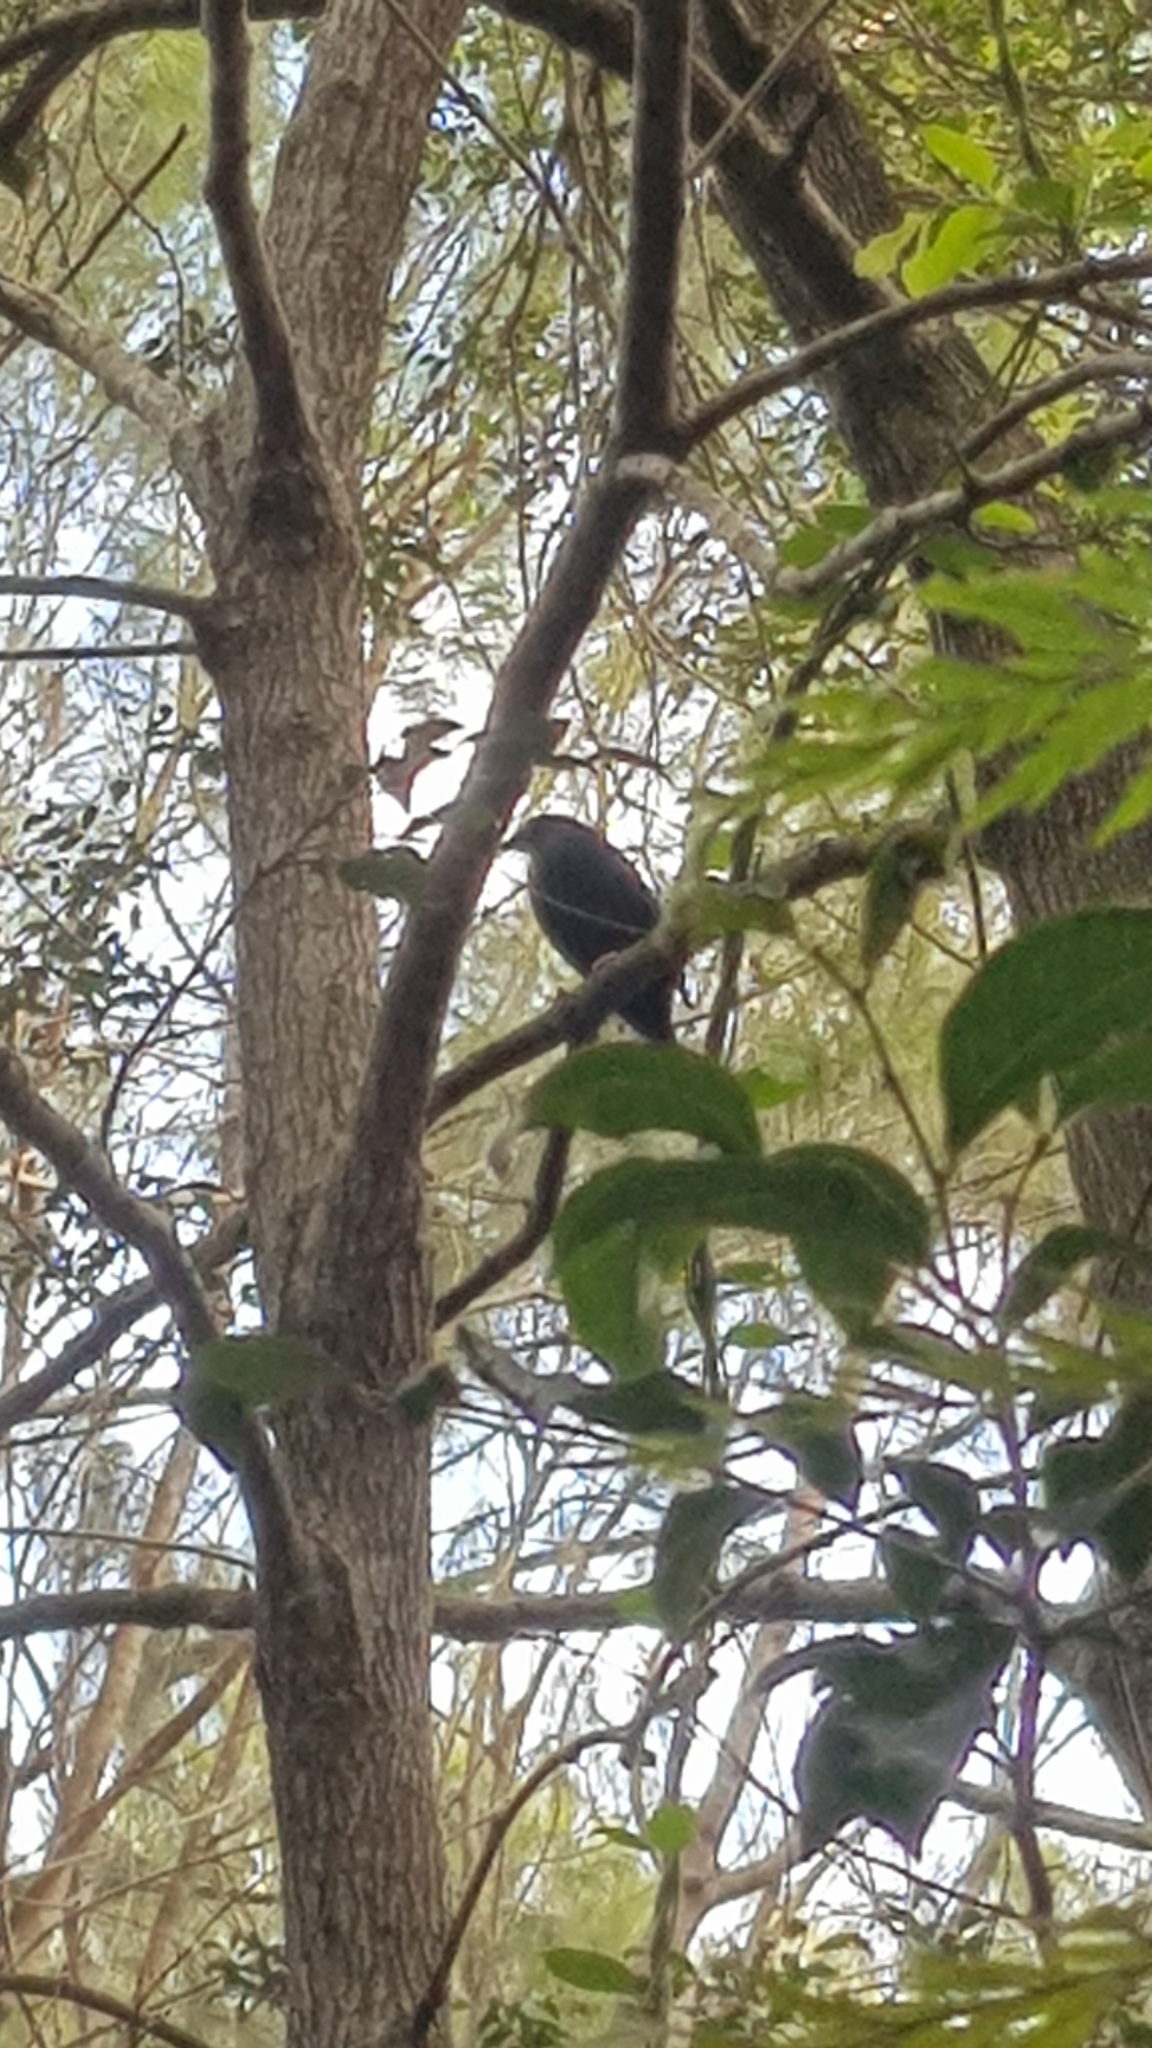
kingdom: Animalia
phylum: Chordata
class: Aves
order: Passeriformes
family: Ptilonorhynchidae
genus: Ptilonorhynchus
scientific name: Ptilonorhynchus violaceus
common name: Satin bowerbird
